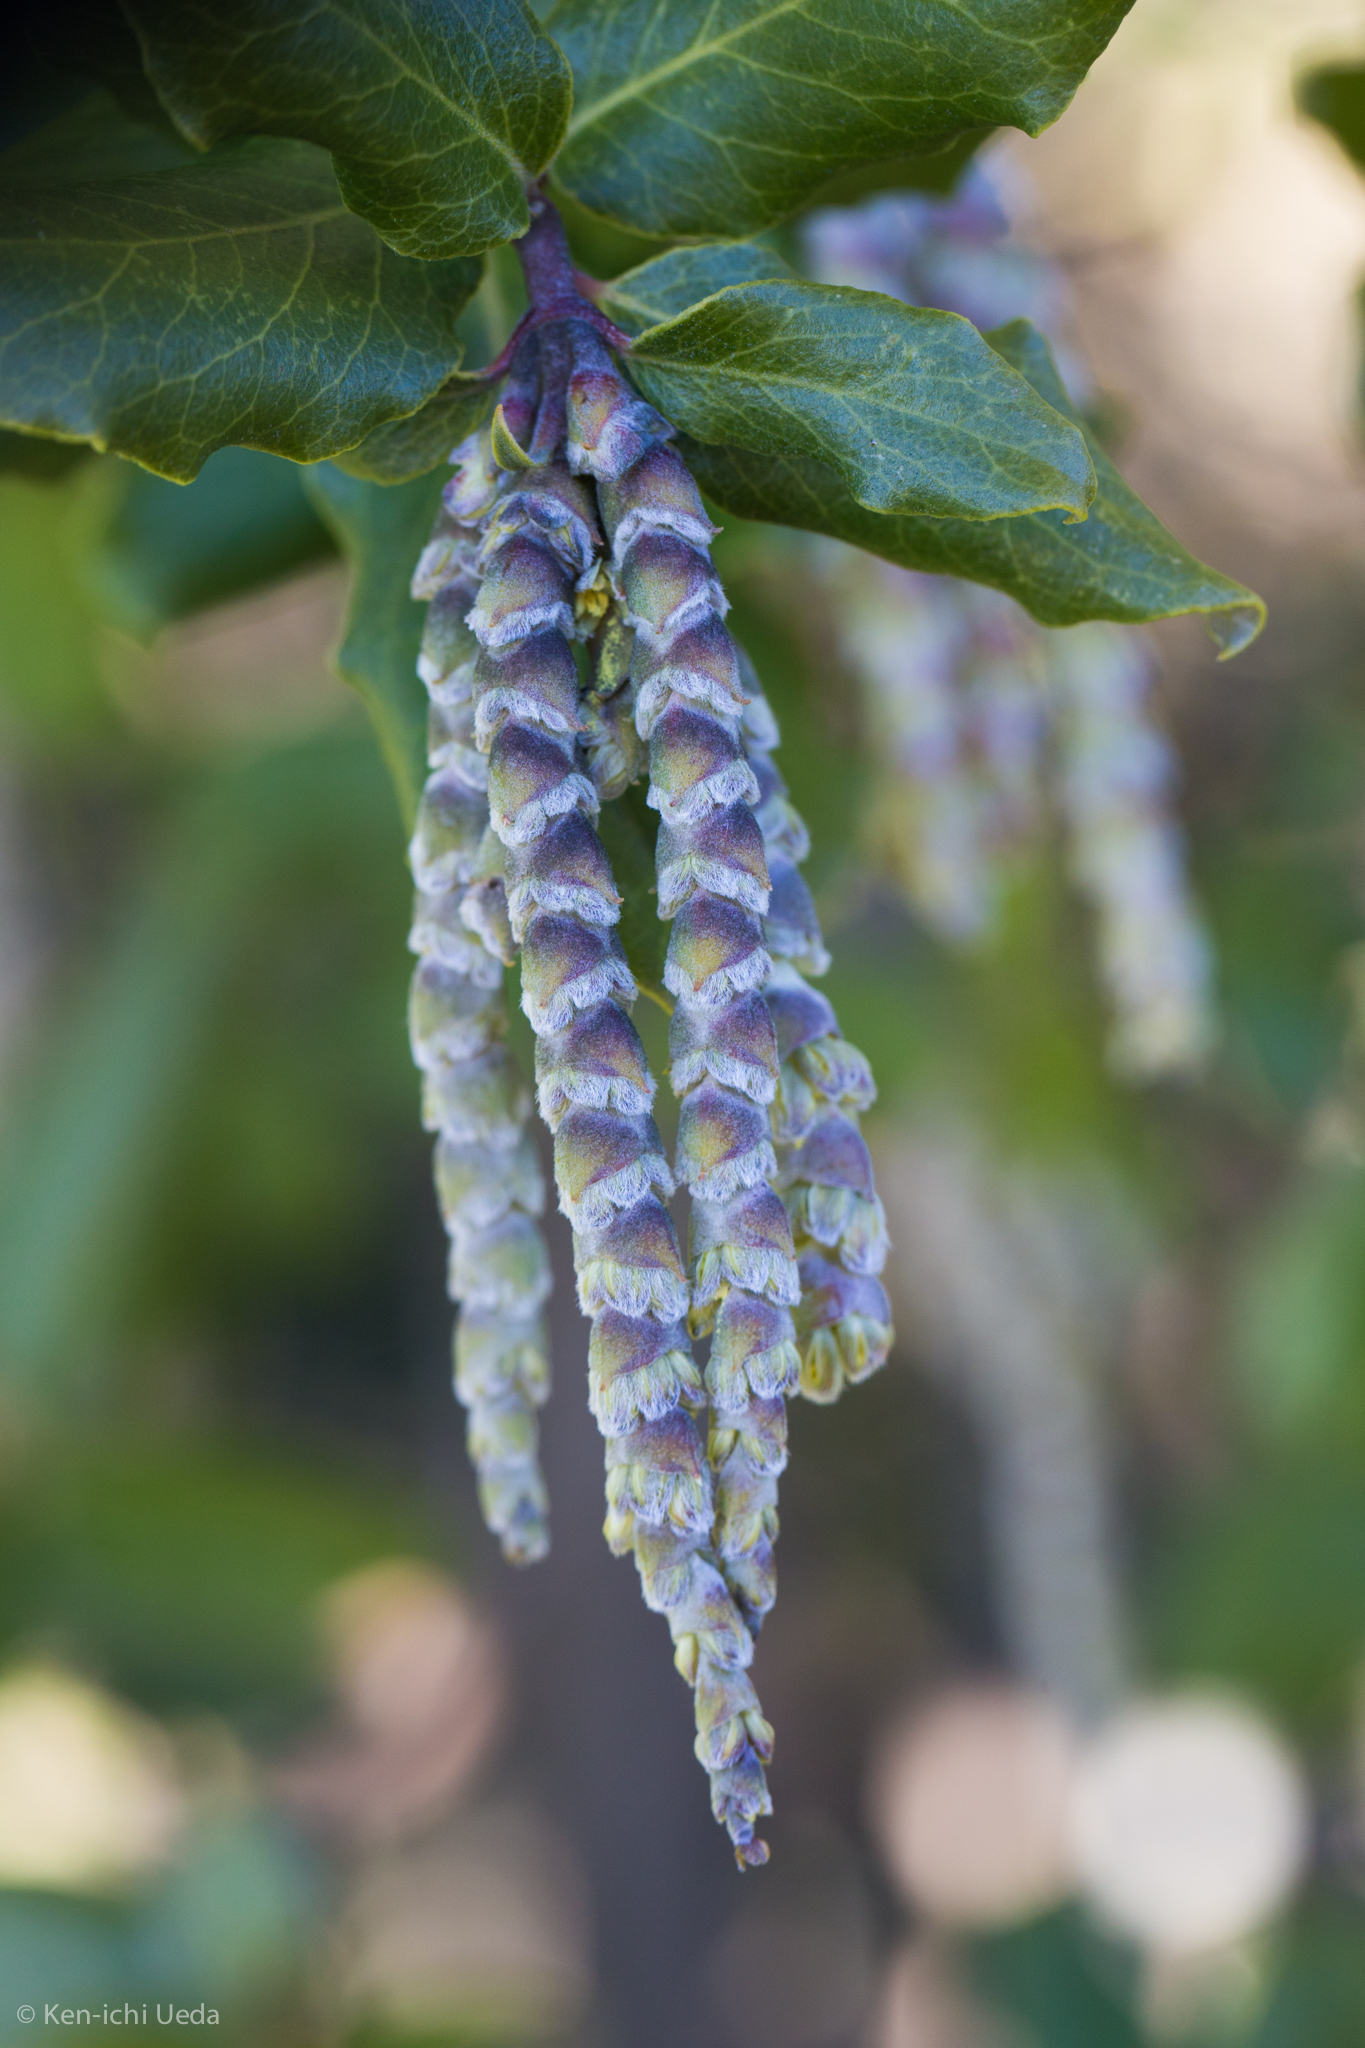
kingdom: Plantae
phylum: Tracheophyta
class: Magnoliopsida
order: Garryales
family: Garryaceae
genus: Garrya
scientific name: Garrya elliptica
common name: Silk-tassel
